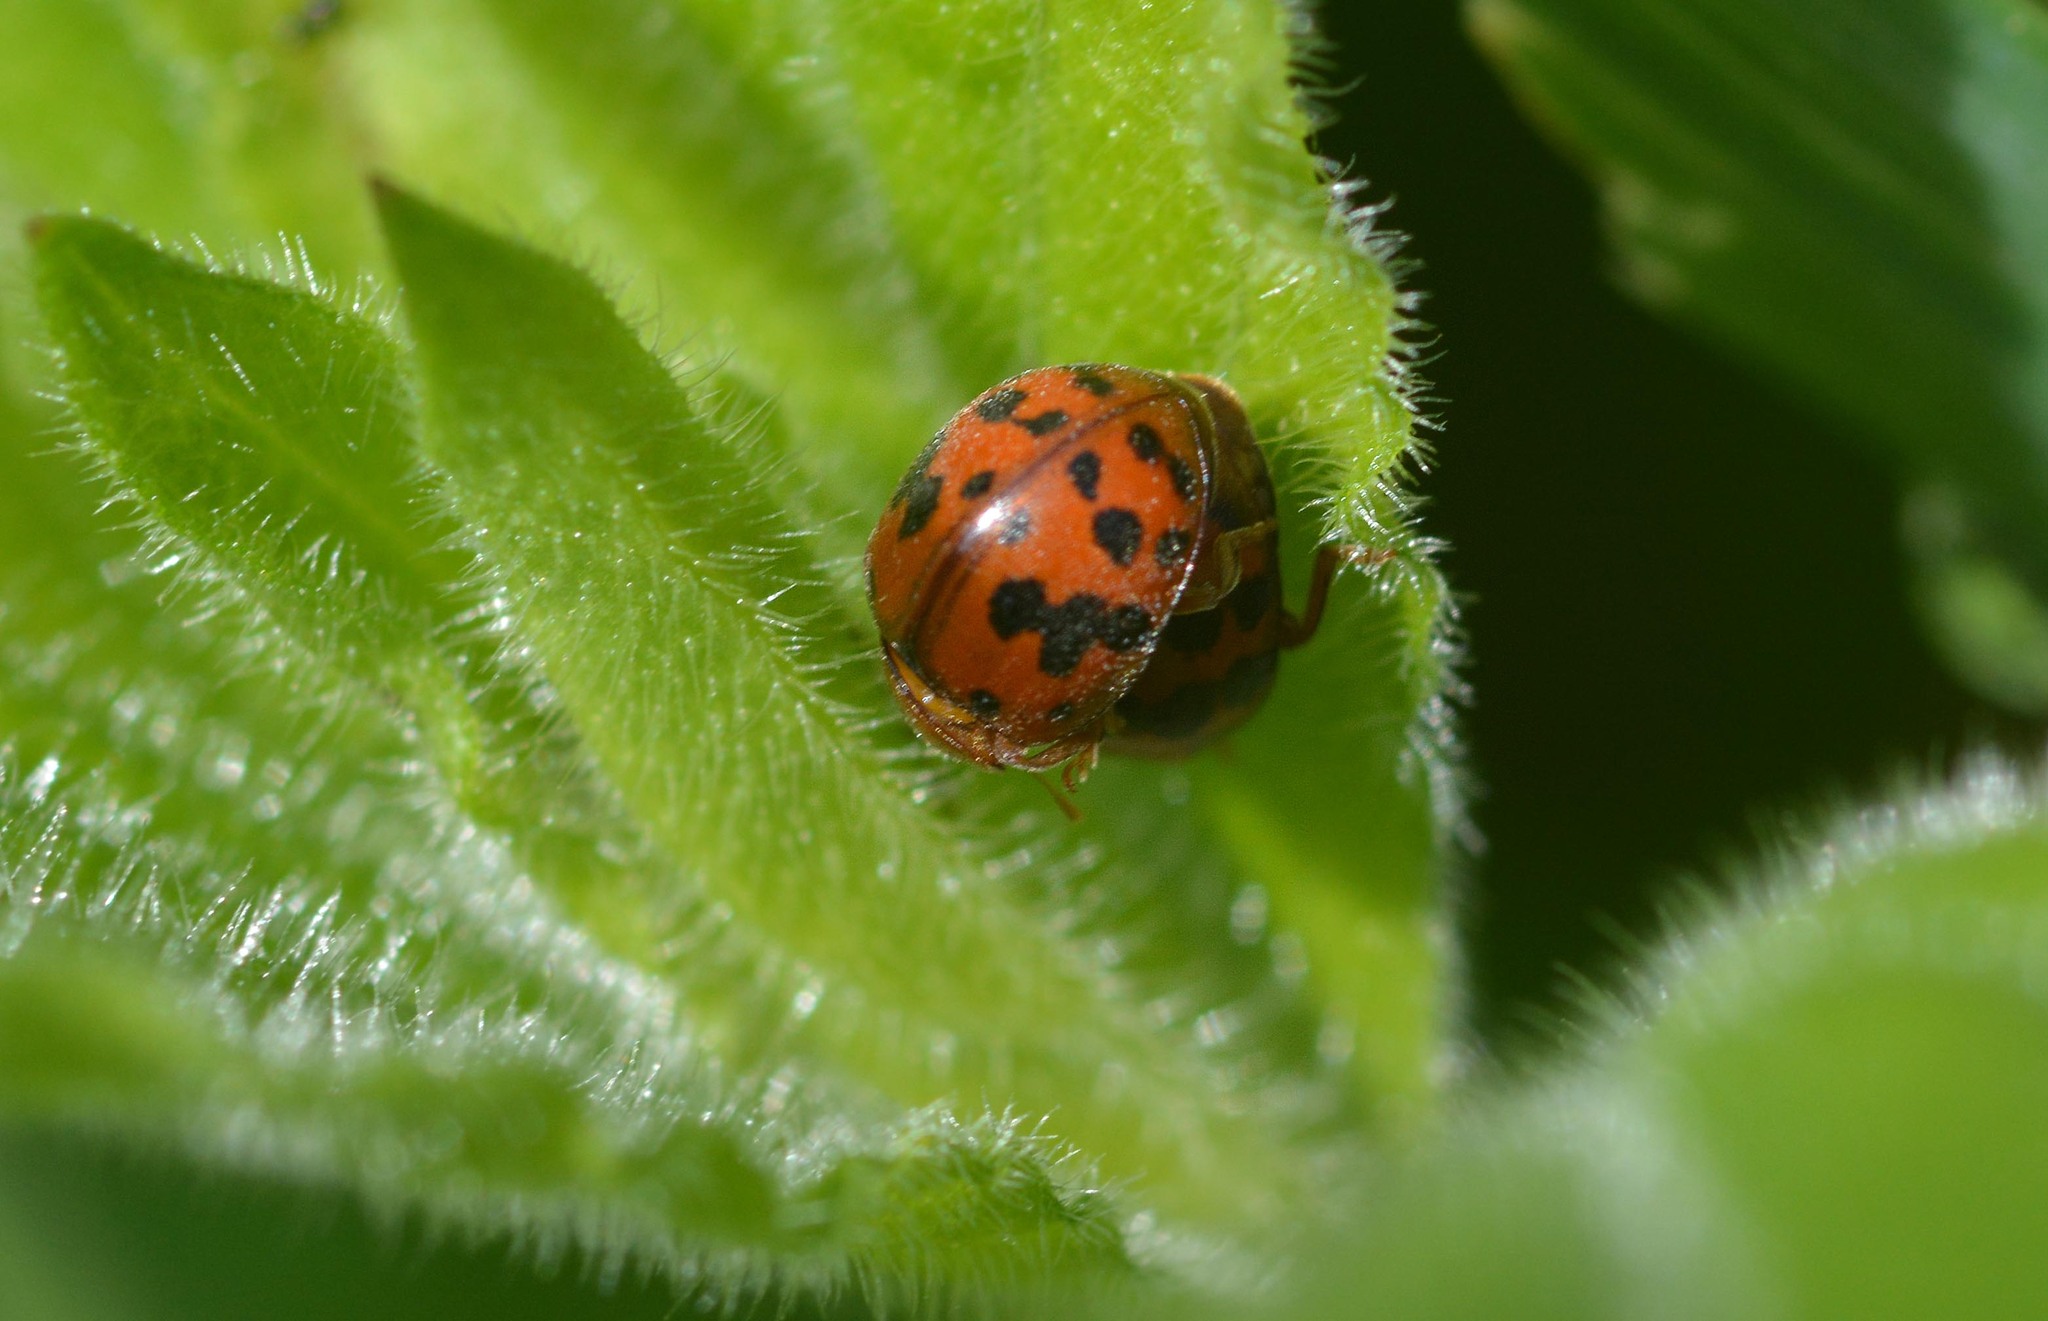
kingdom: Animalia
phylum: Arthropoda
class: Insecta
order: Coleoptera
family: Coccinellidae
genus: Subcoccinella
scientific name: Subcoccinella vigintiquatuorpunctata
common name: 24-spot ladybird
